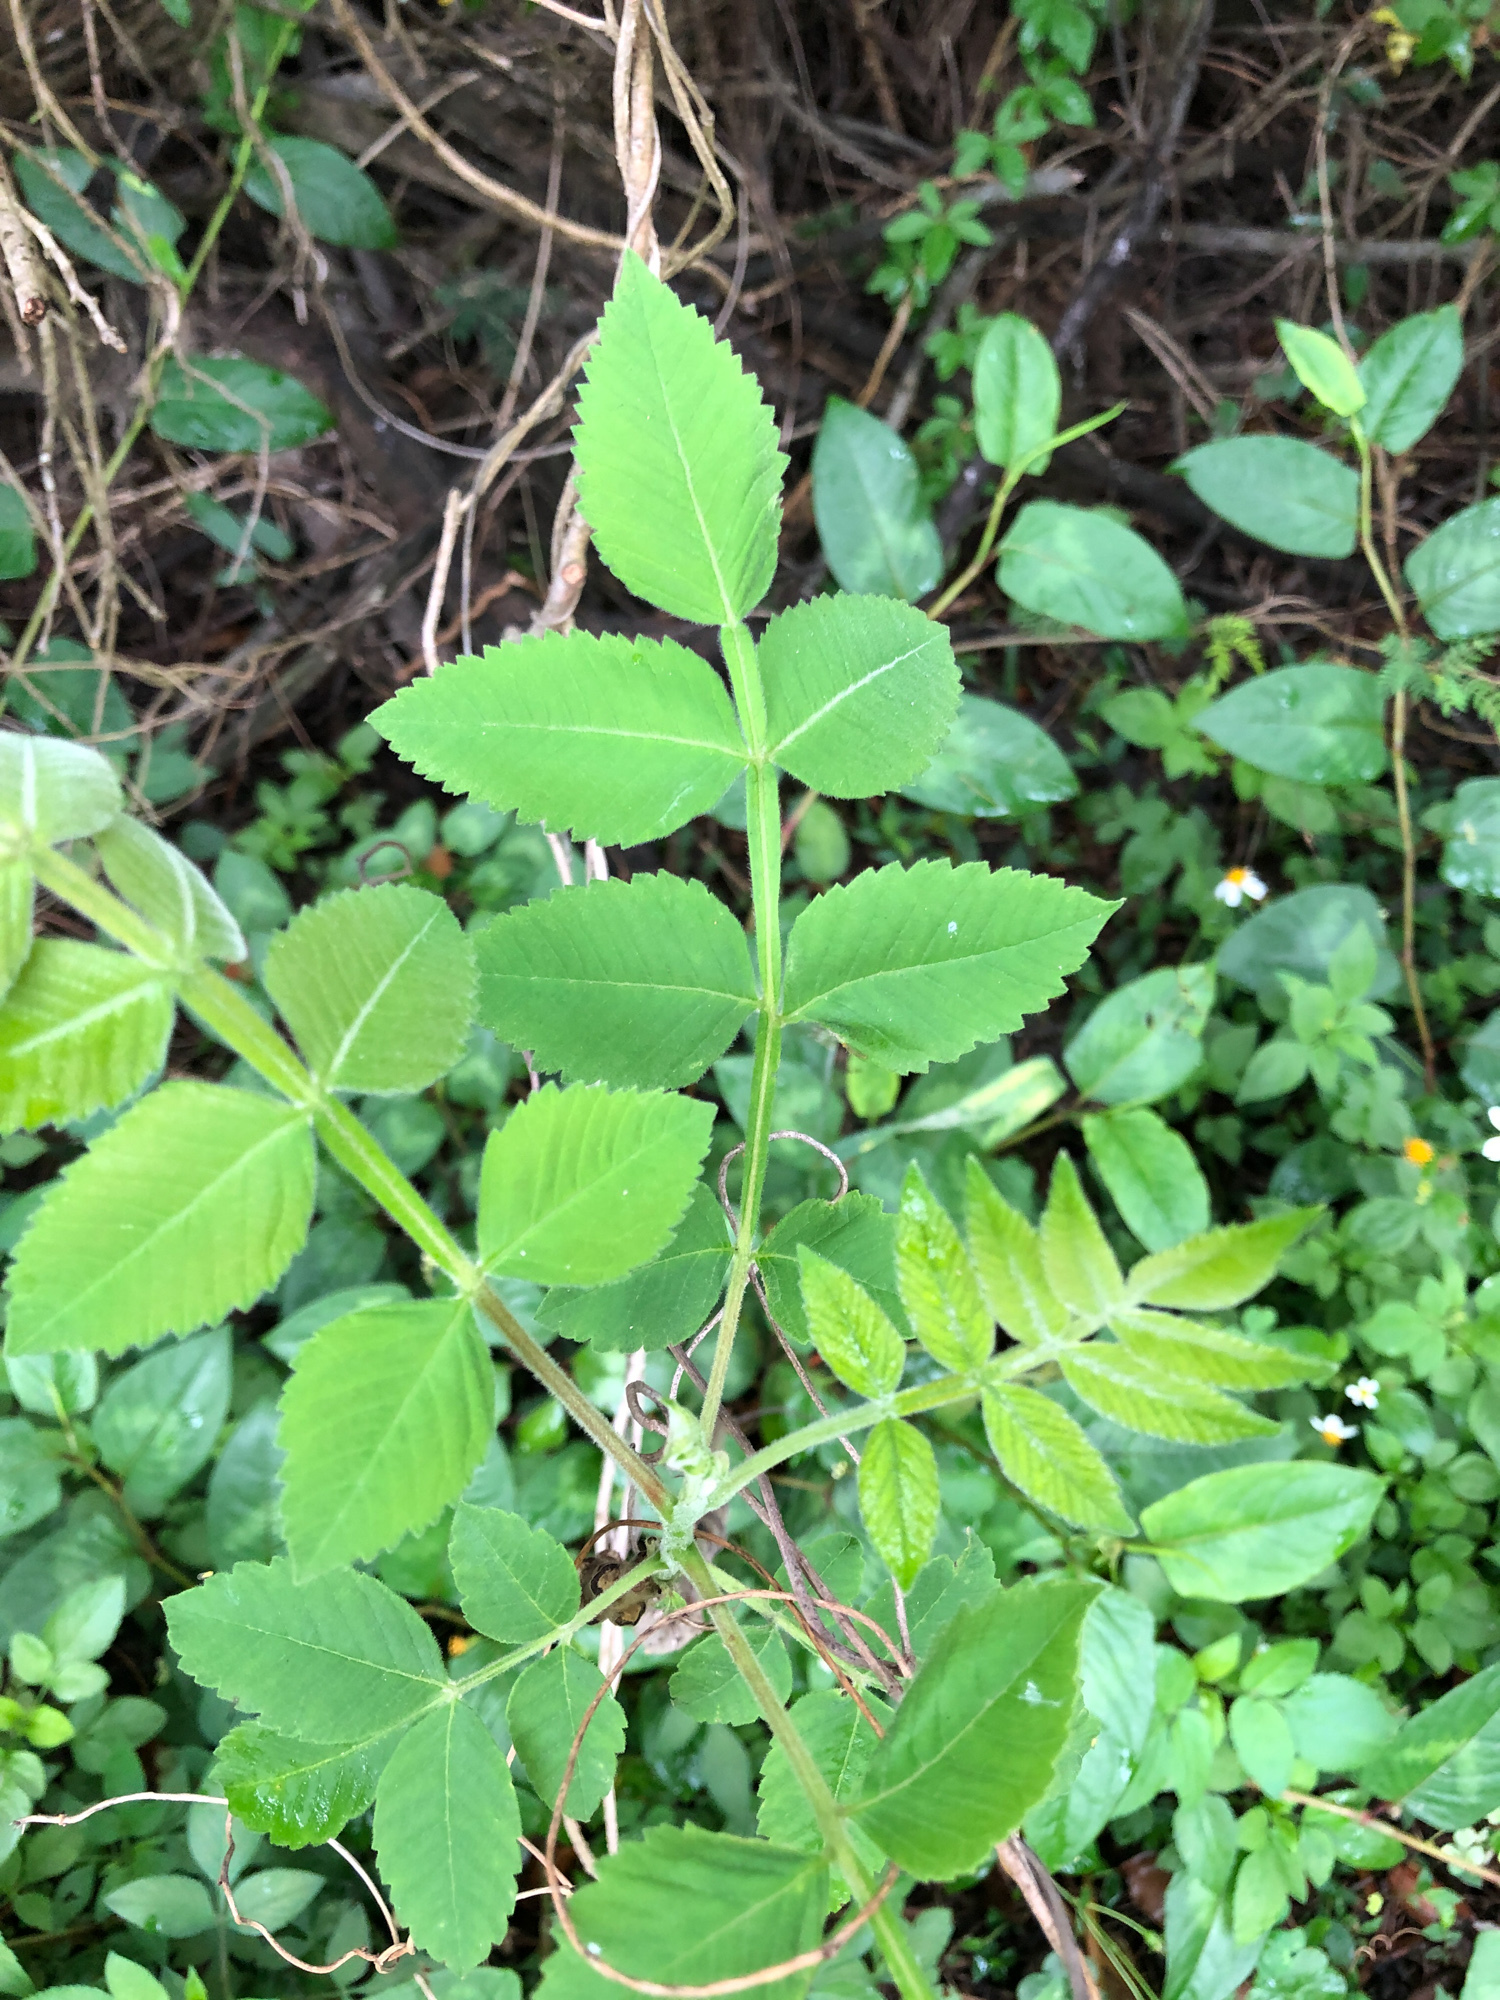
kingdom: Plantae
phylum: Tracheophyta
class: Magnoliopsida
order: Sapindales
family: Anacardiaceae
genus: Rhus
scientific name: Rhus chinensis
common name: Chinese gall
